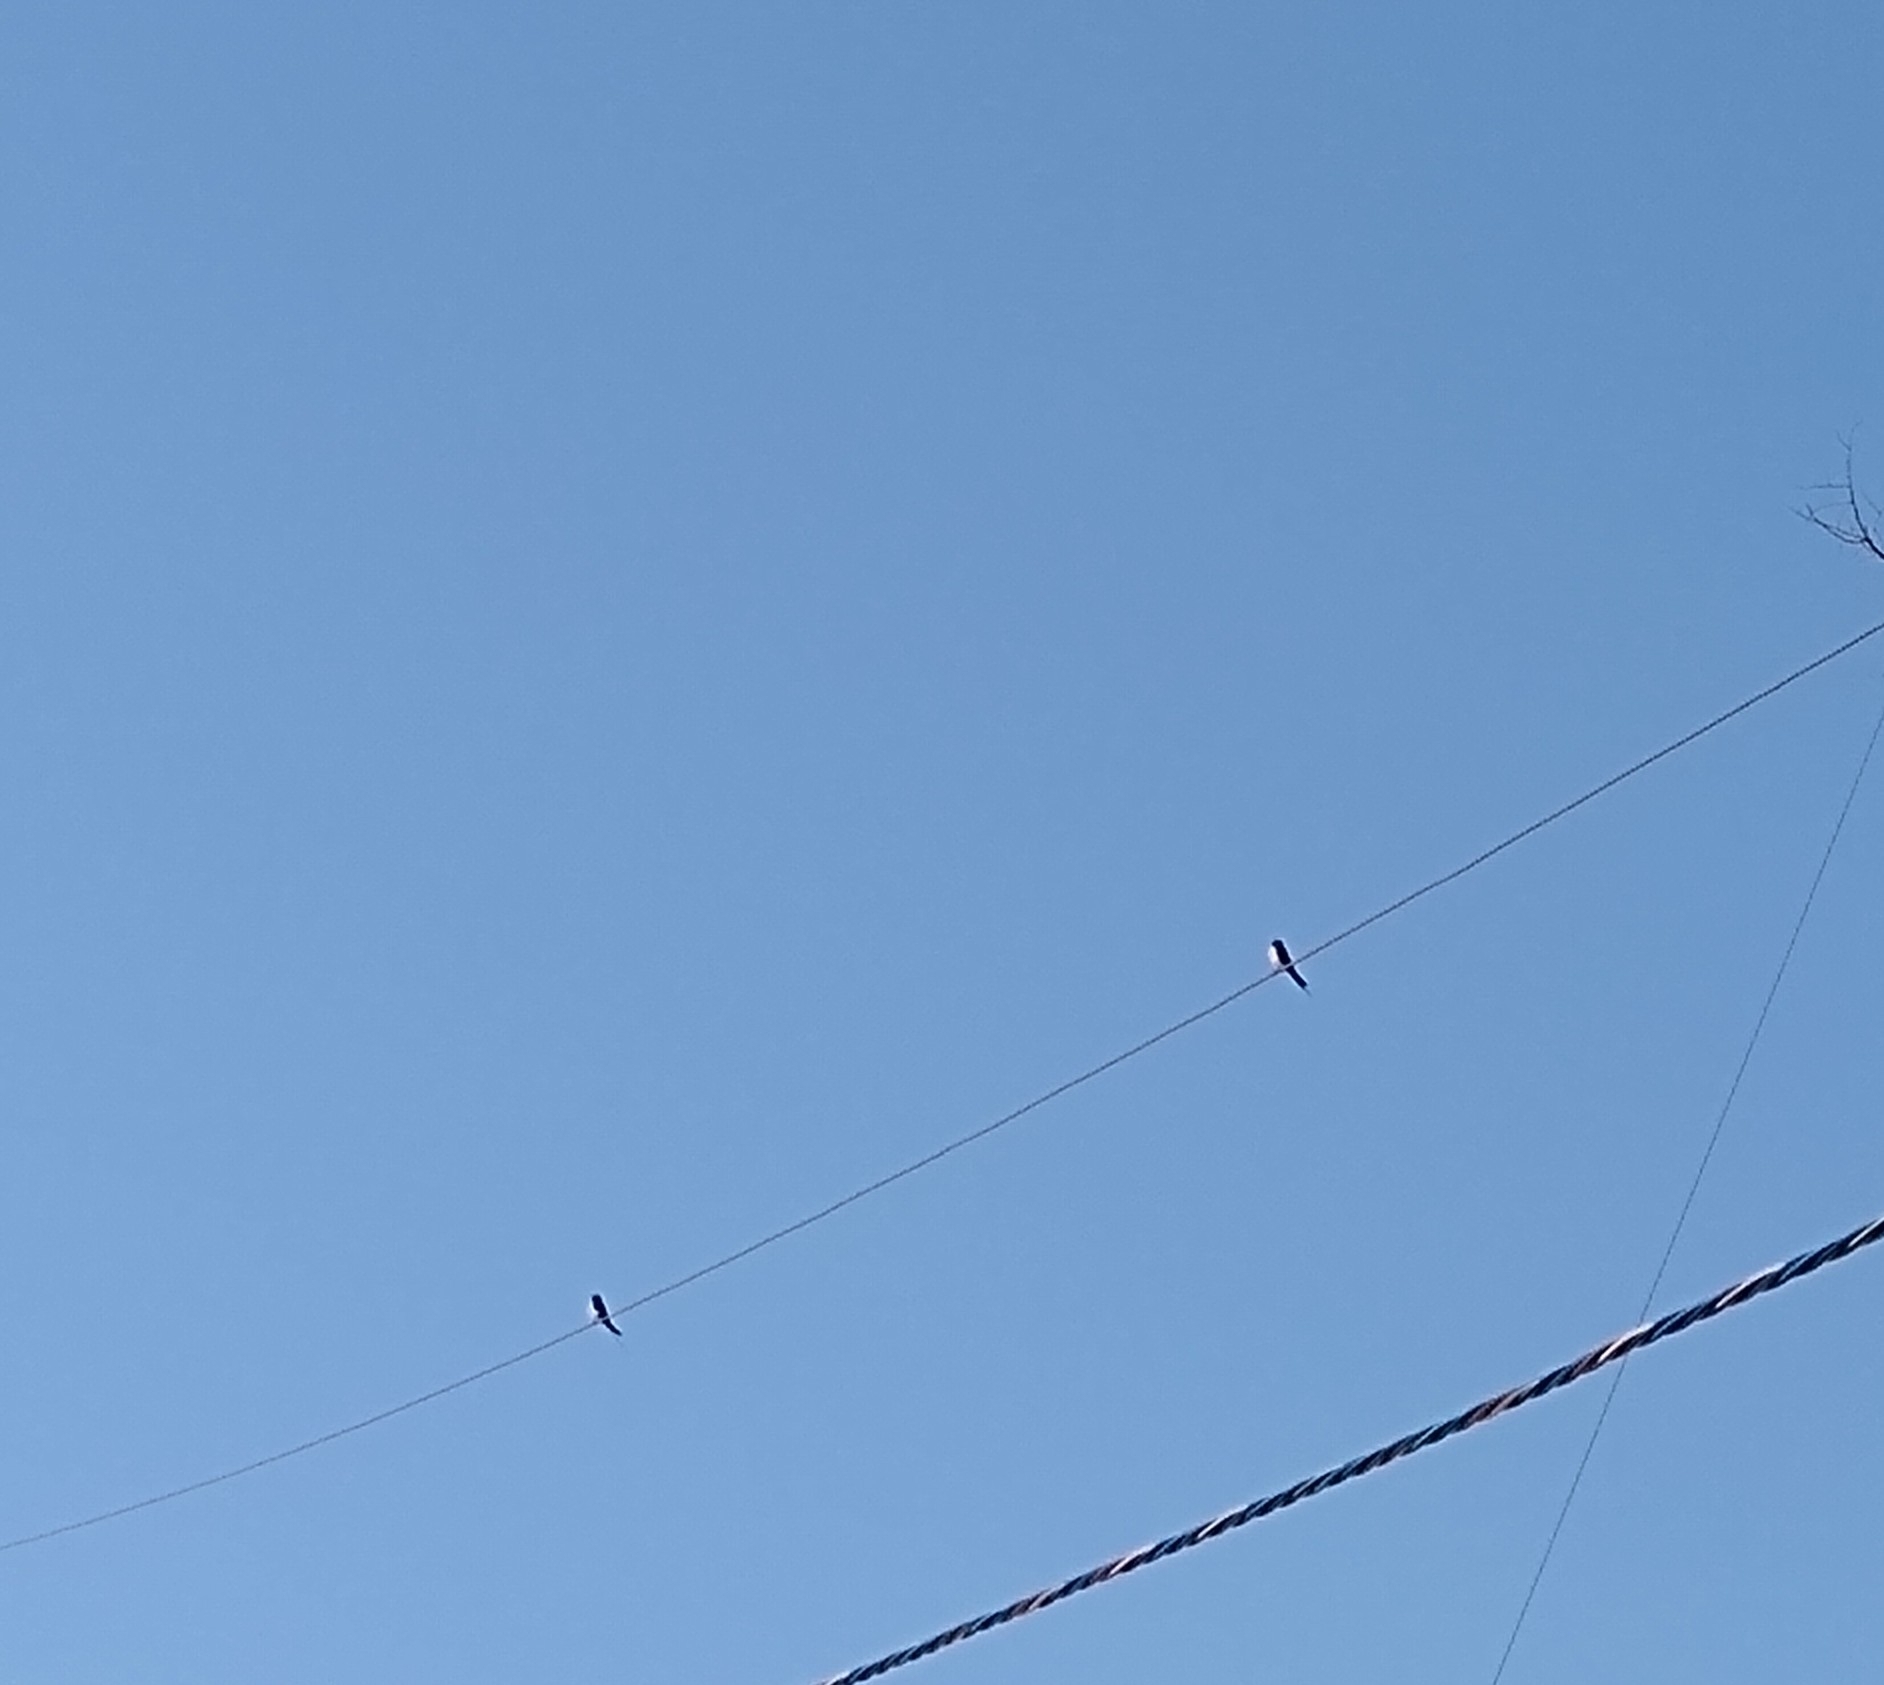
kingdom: Animalia
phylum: Chordata
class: Aves
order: Passeriformes
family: Hirundinidae
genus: Hirundo
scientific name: Hirundo rustica
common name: Barn swallow
